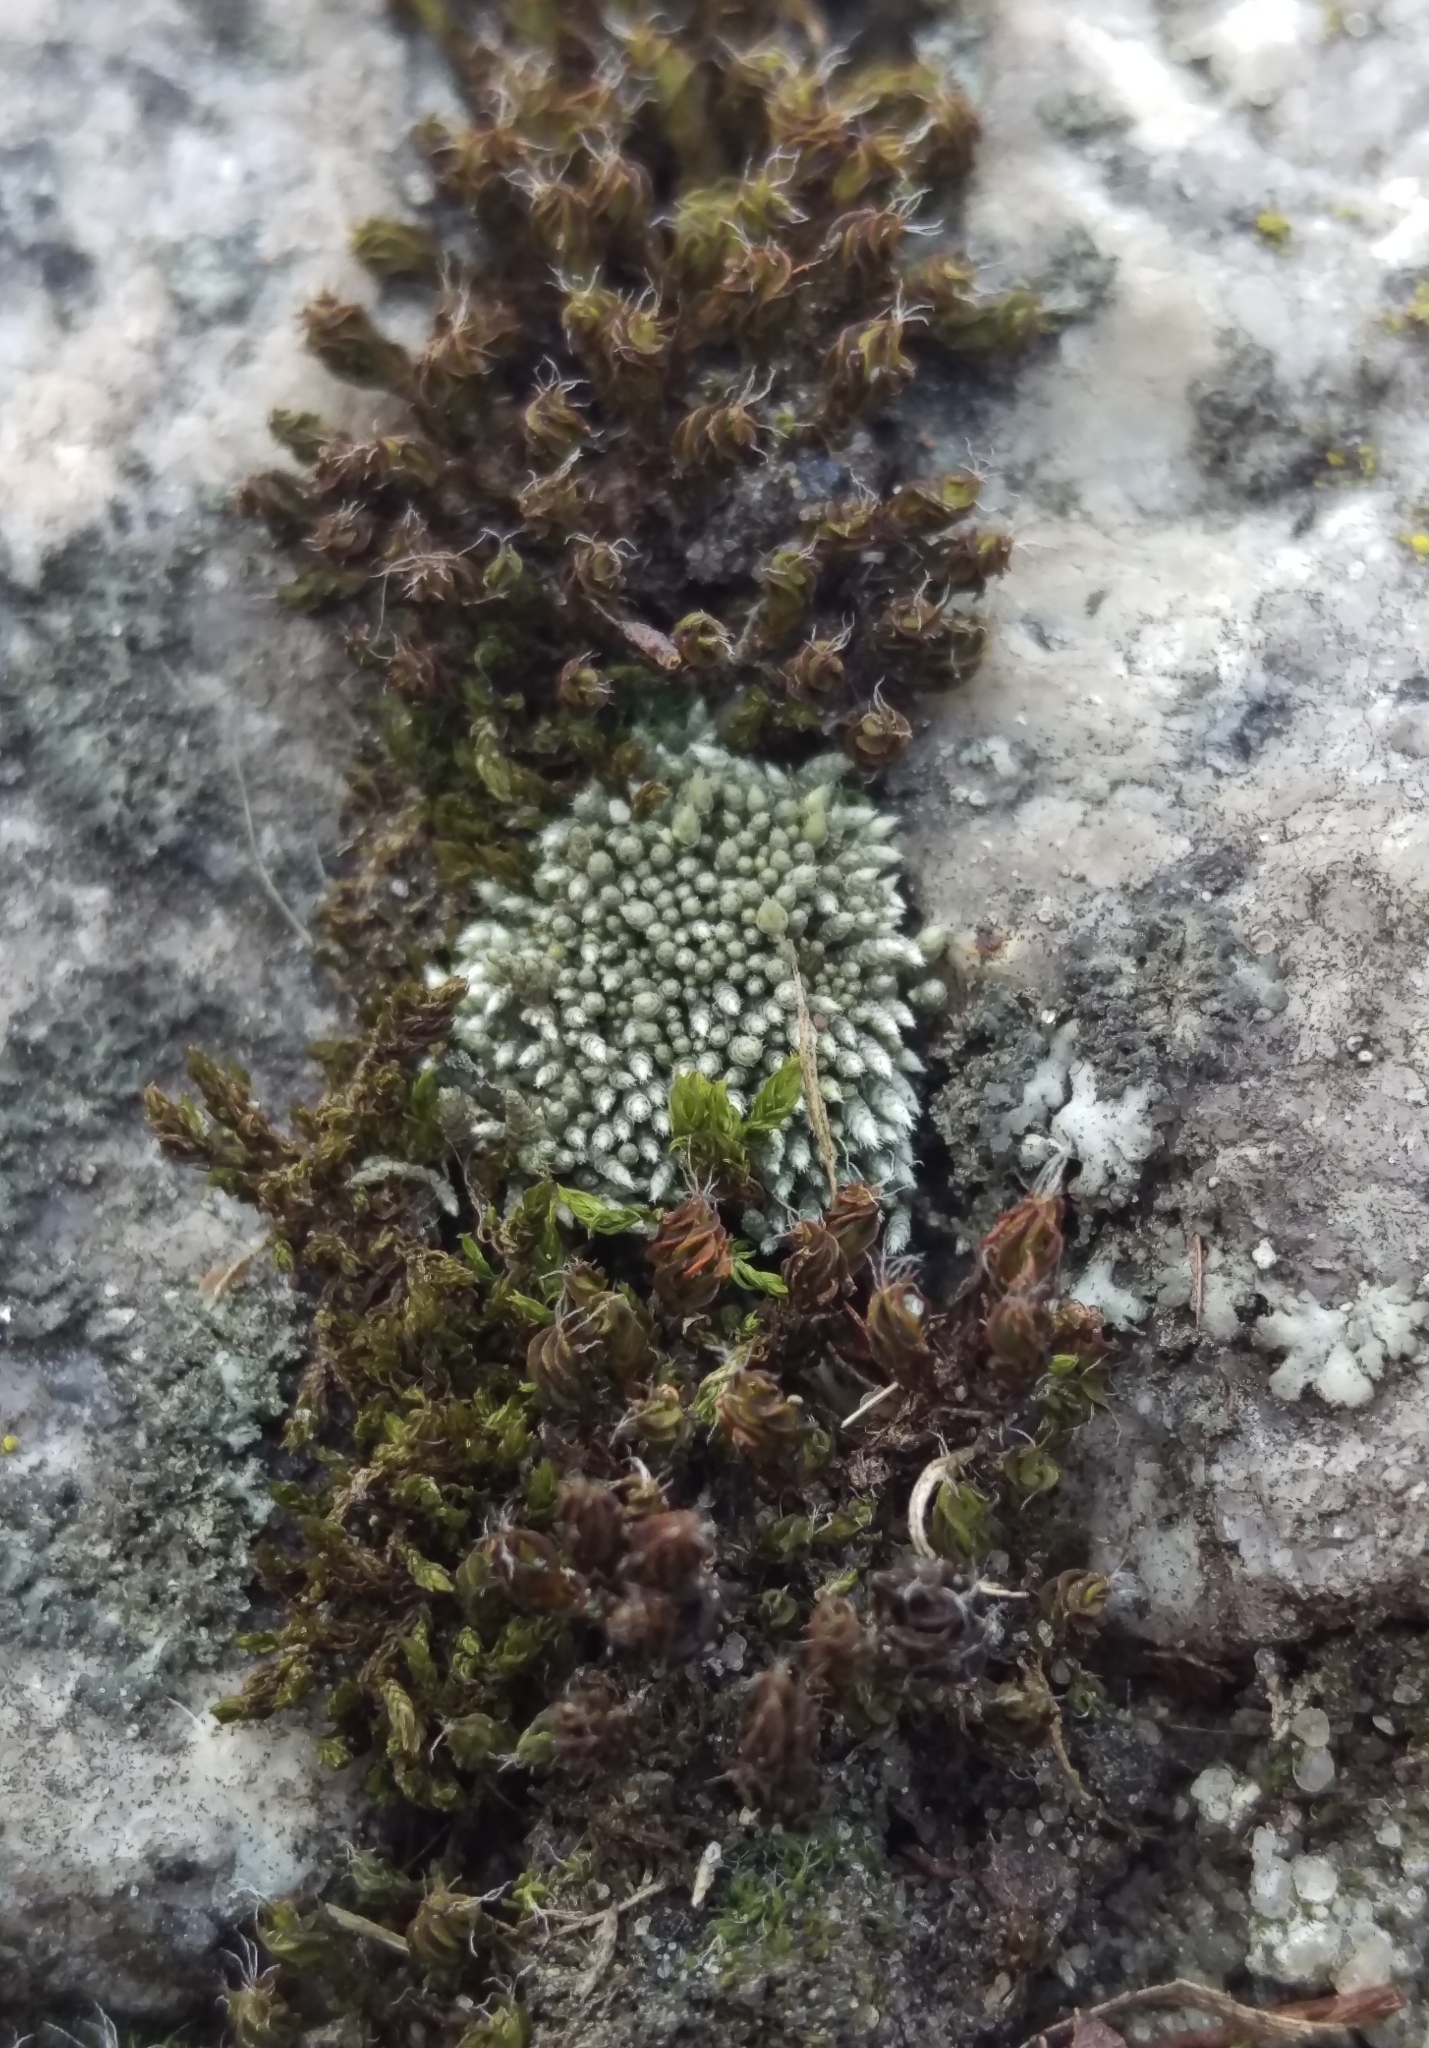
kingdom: Plantae
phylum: Bryophyta
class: Bryopsida
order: Bryales
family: Bryaceae
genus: Bryum
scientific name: Bryum argenteum
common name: Silver-moss
